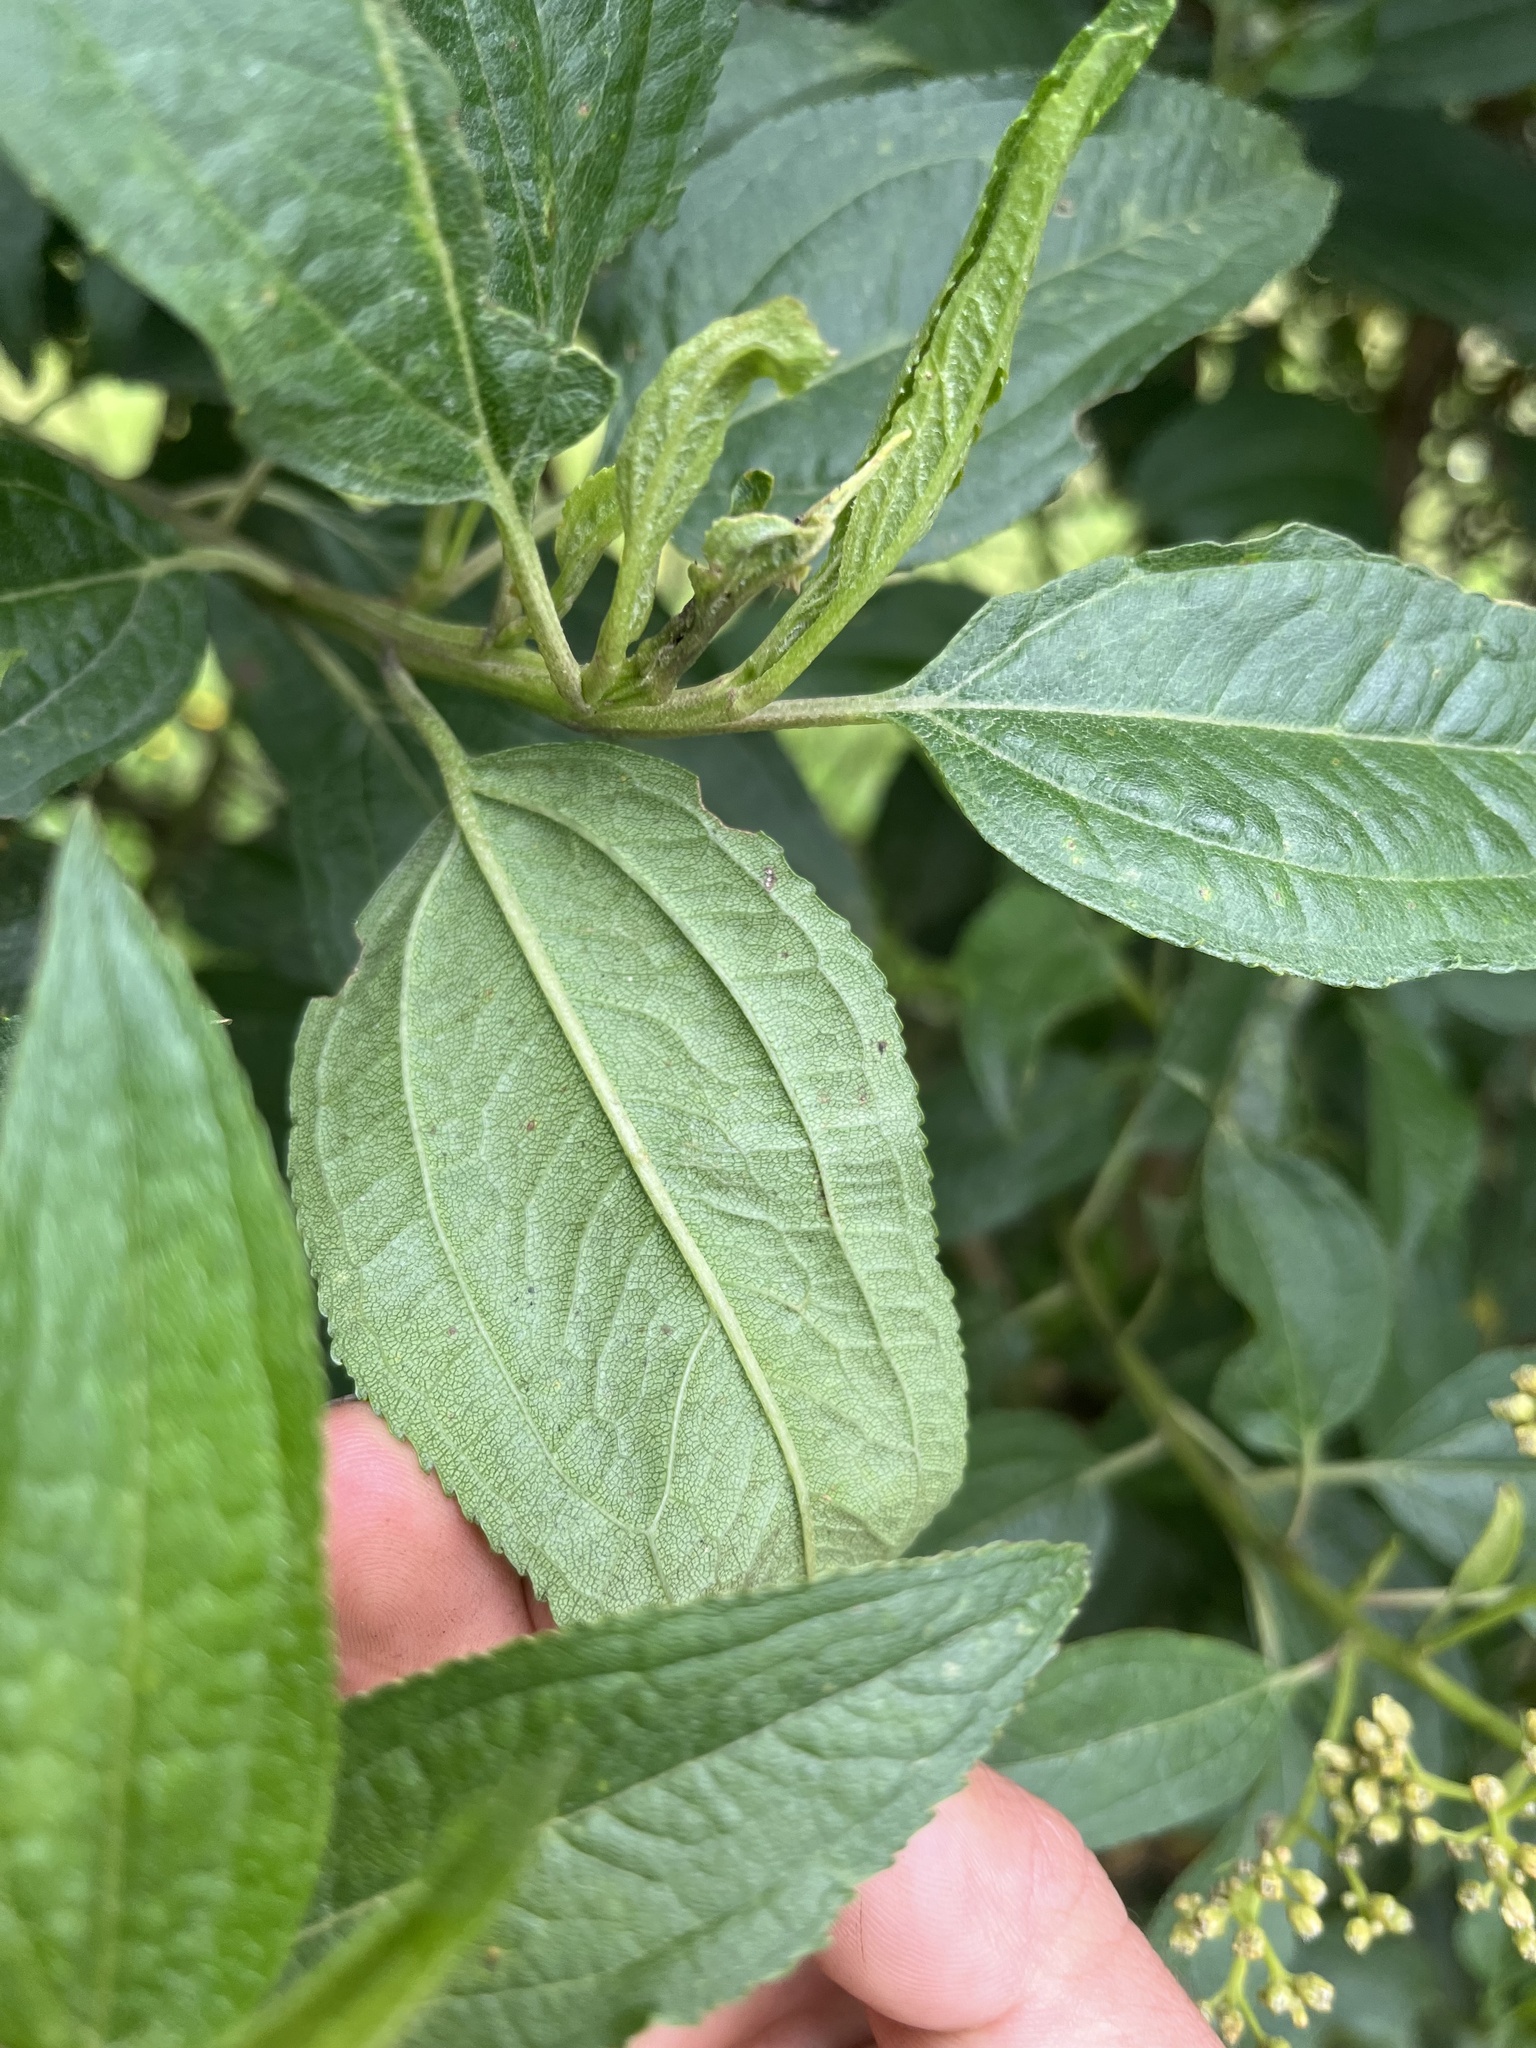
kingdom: Plantae
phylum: Tracheophyta
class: Magnoliopsida
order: Asterales
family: Asteraceae
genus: Baccharis
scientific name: Baccharis latifolia
